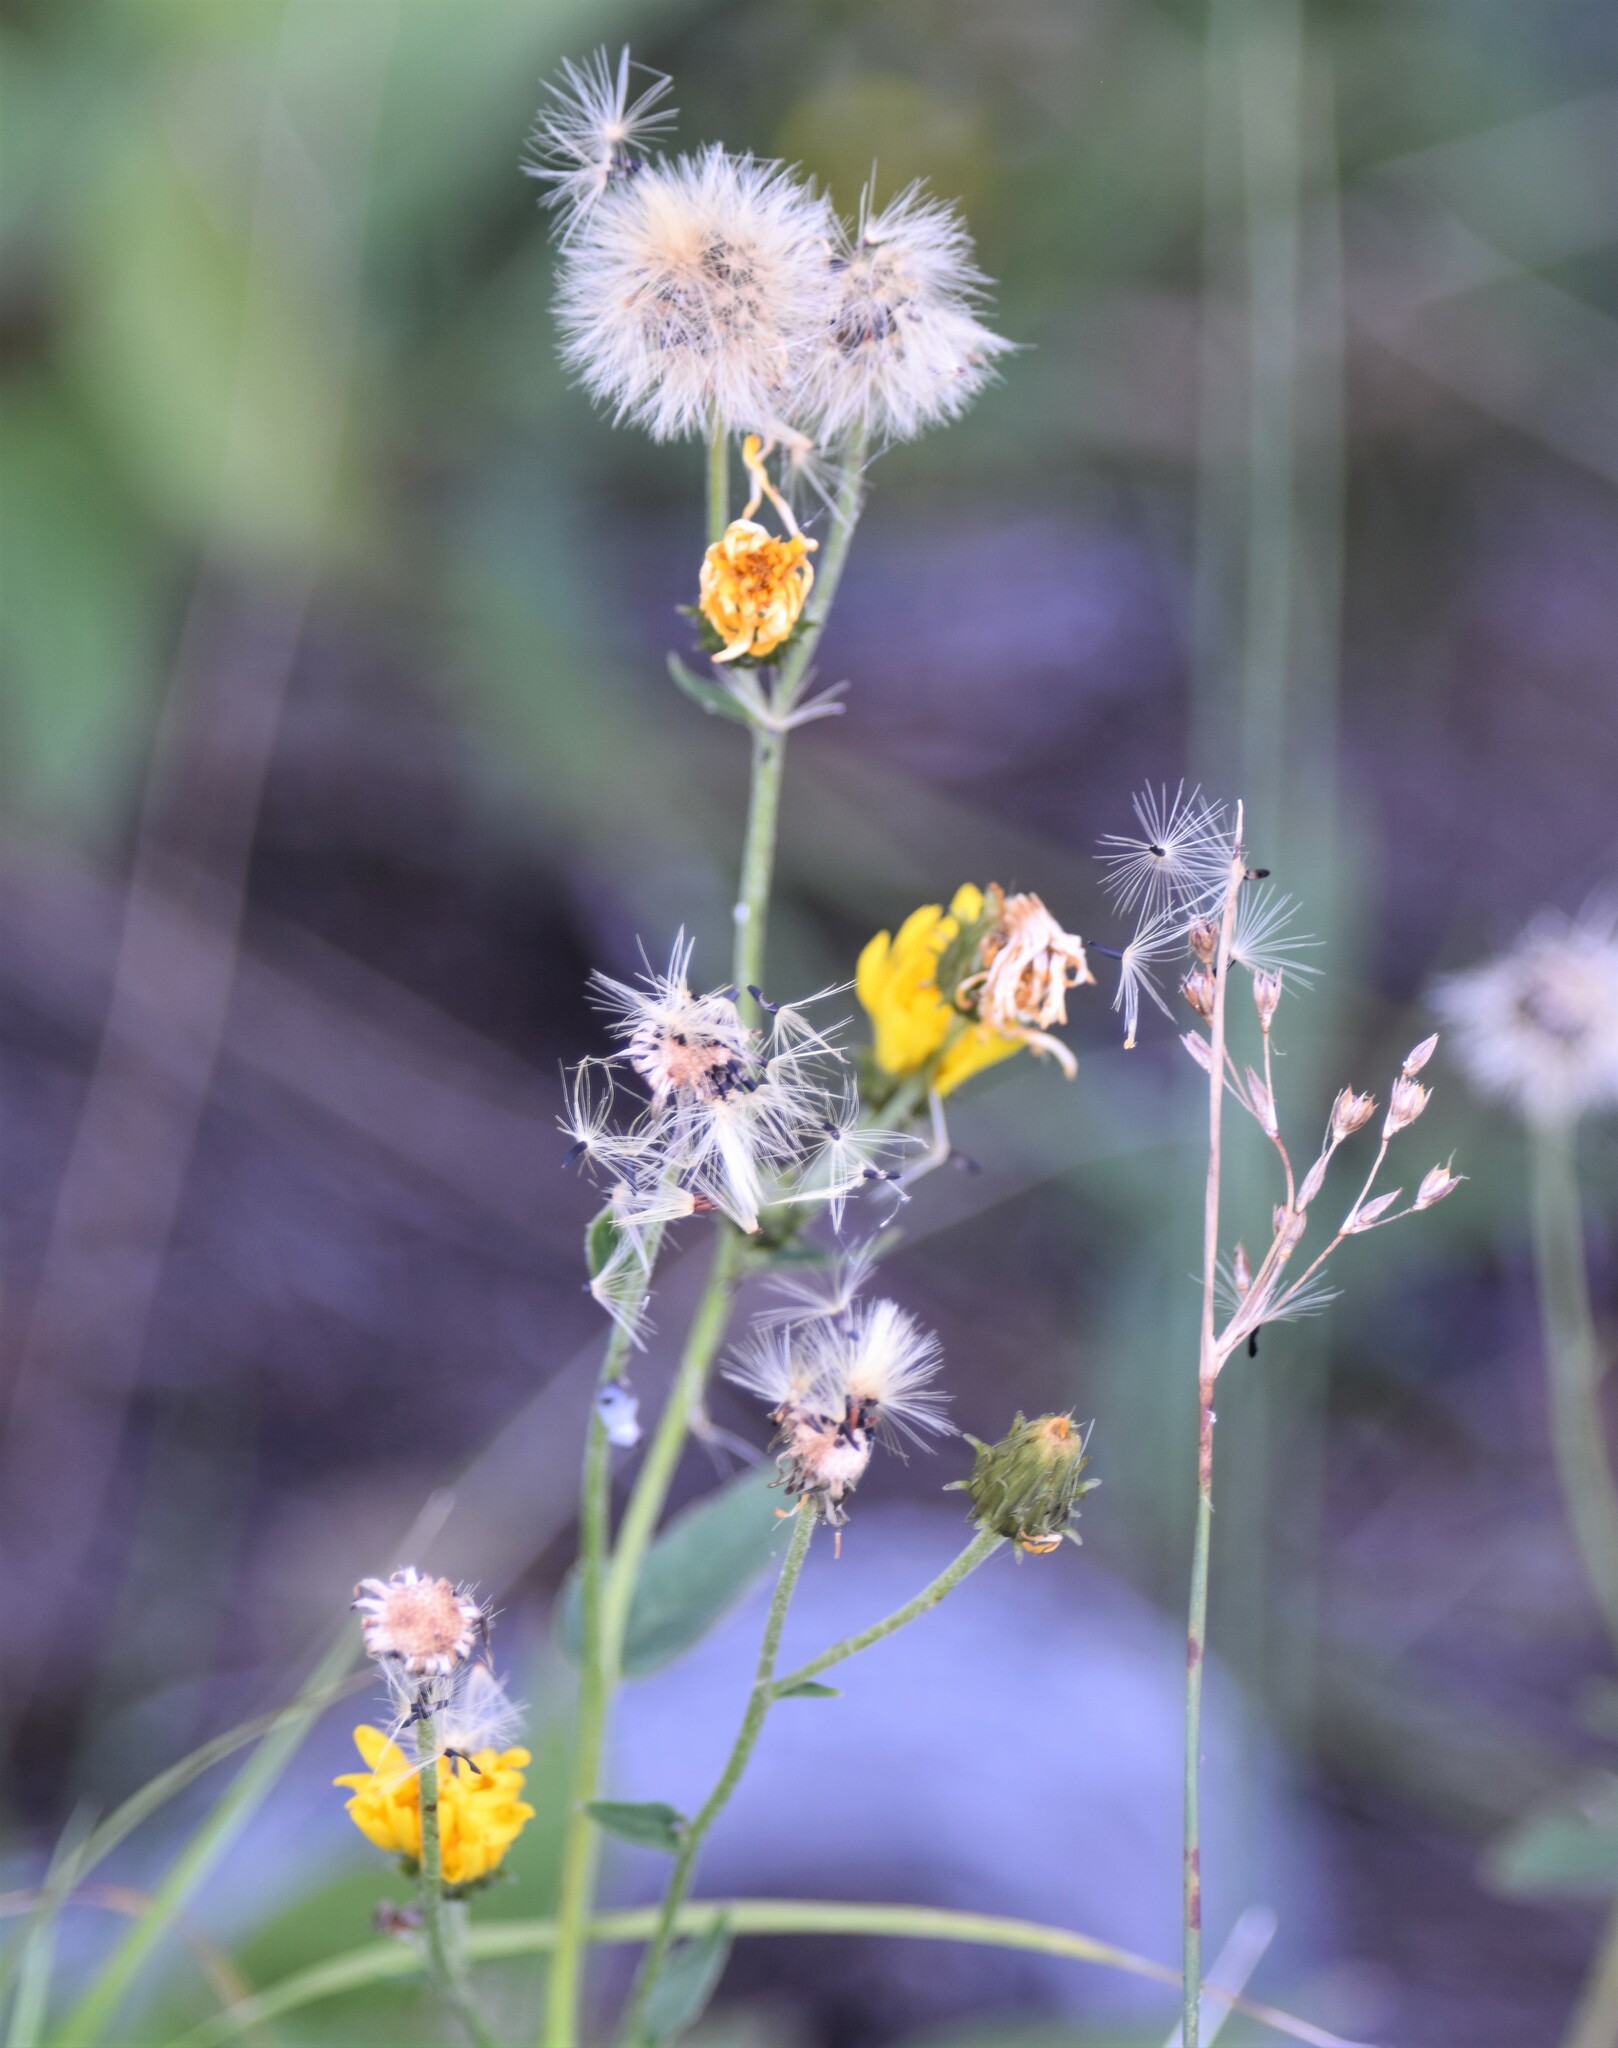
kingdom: Plantae
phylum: Tracheophyta
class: Magnoliopsida
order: Asterales
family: Asteraceae
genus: Hieracium
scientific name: Hieracium umbellatum
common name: Northern hawkweed
